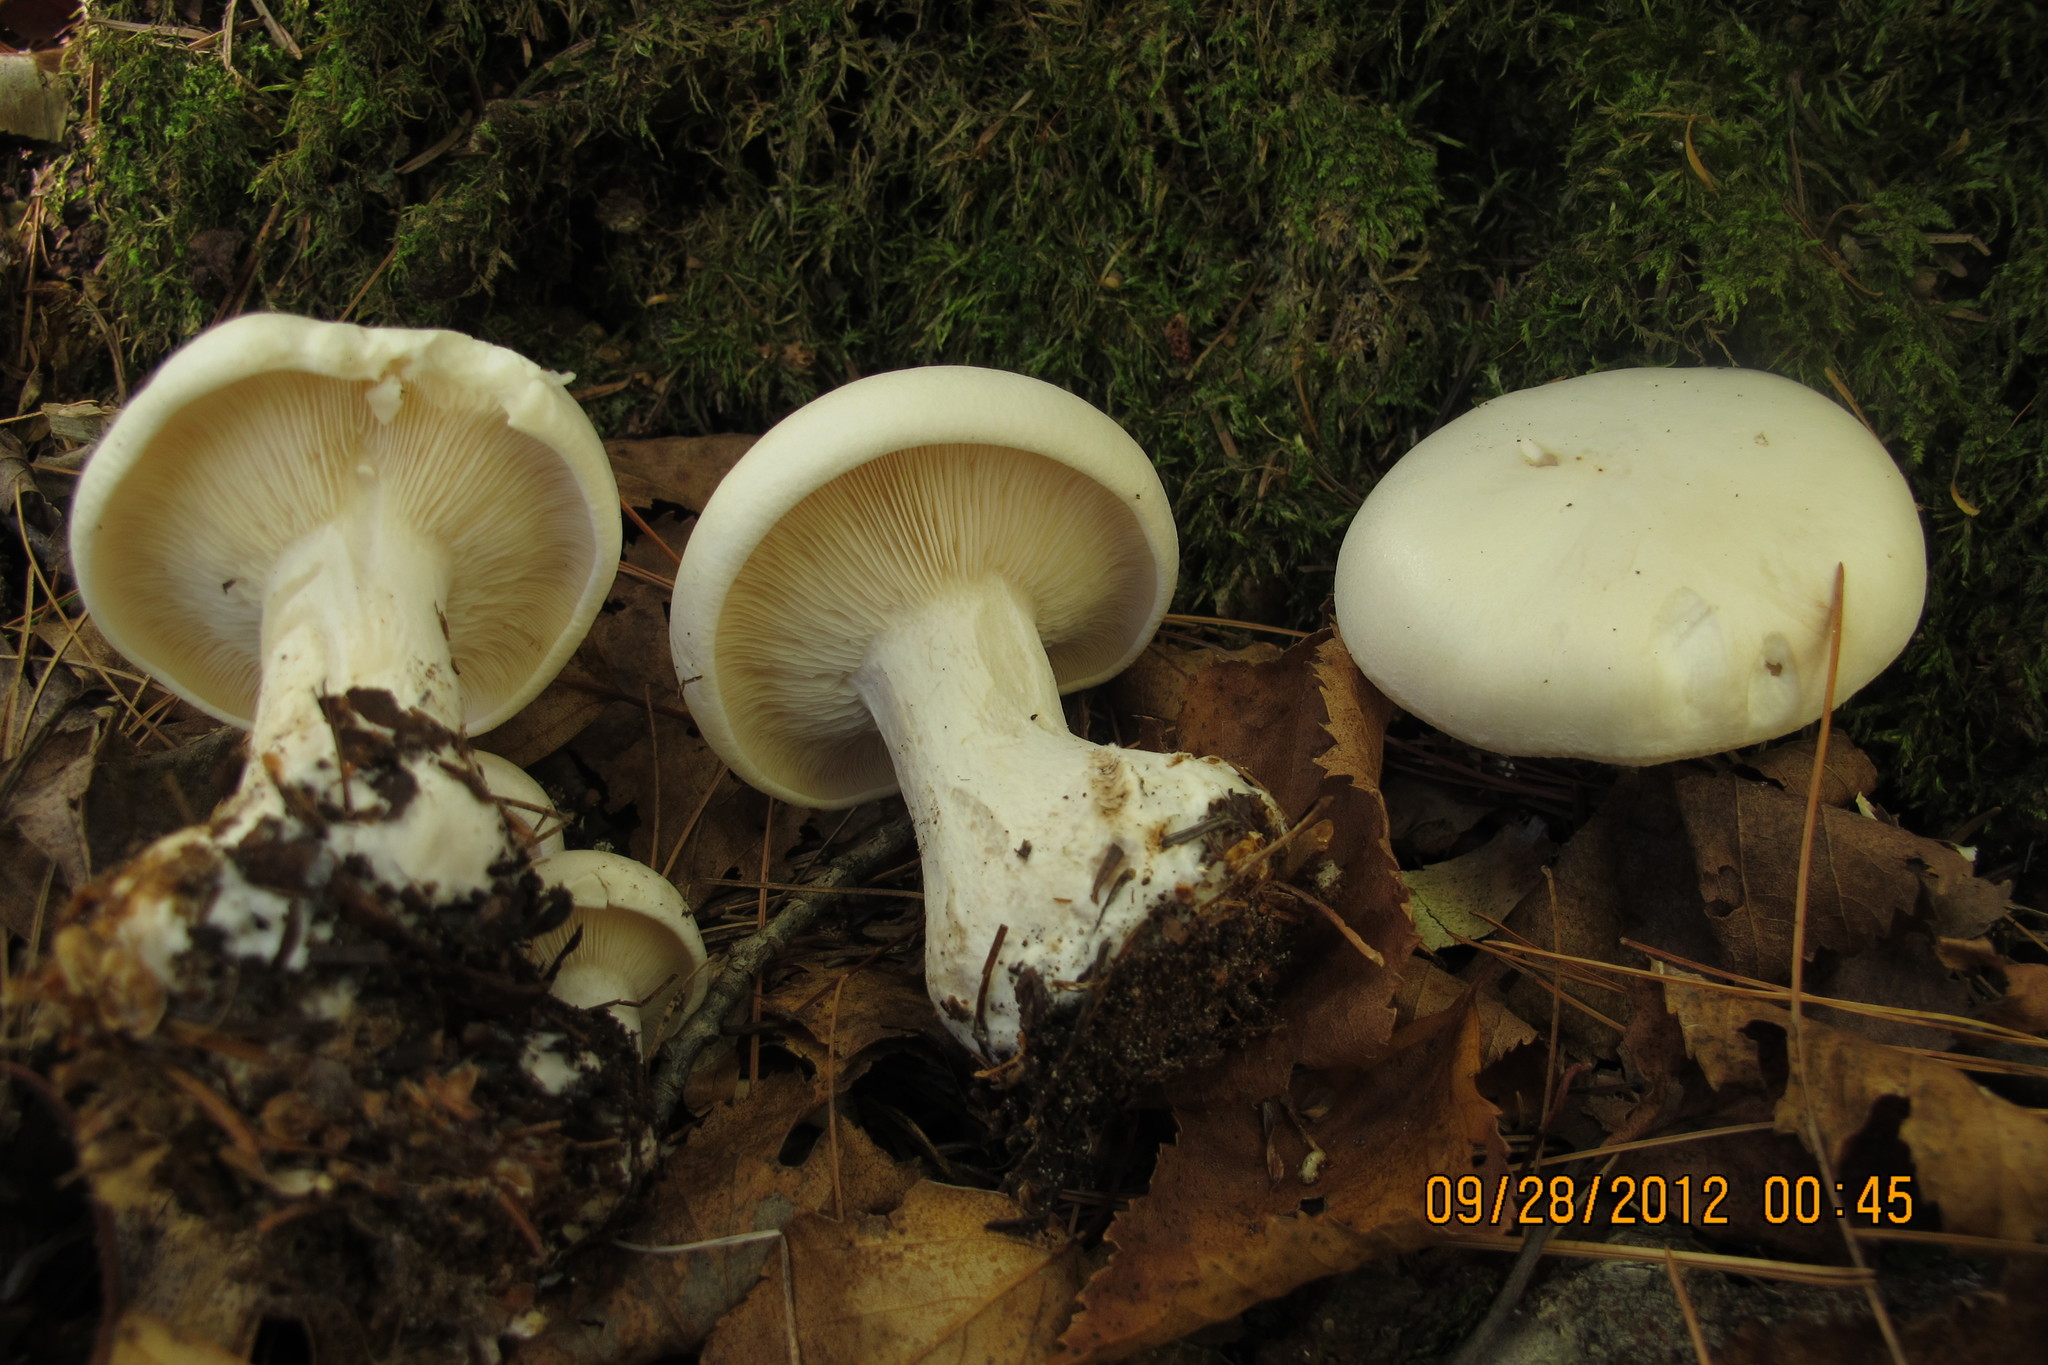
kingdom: Fungi
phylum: Basidiomycota
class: Agaricomycetes
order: Agaricales
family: Tricholomataceae
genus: Clitocybe
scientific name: Clitocybe robusta
